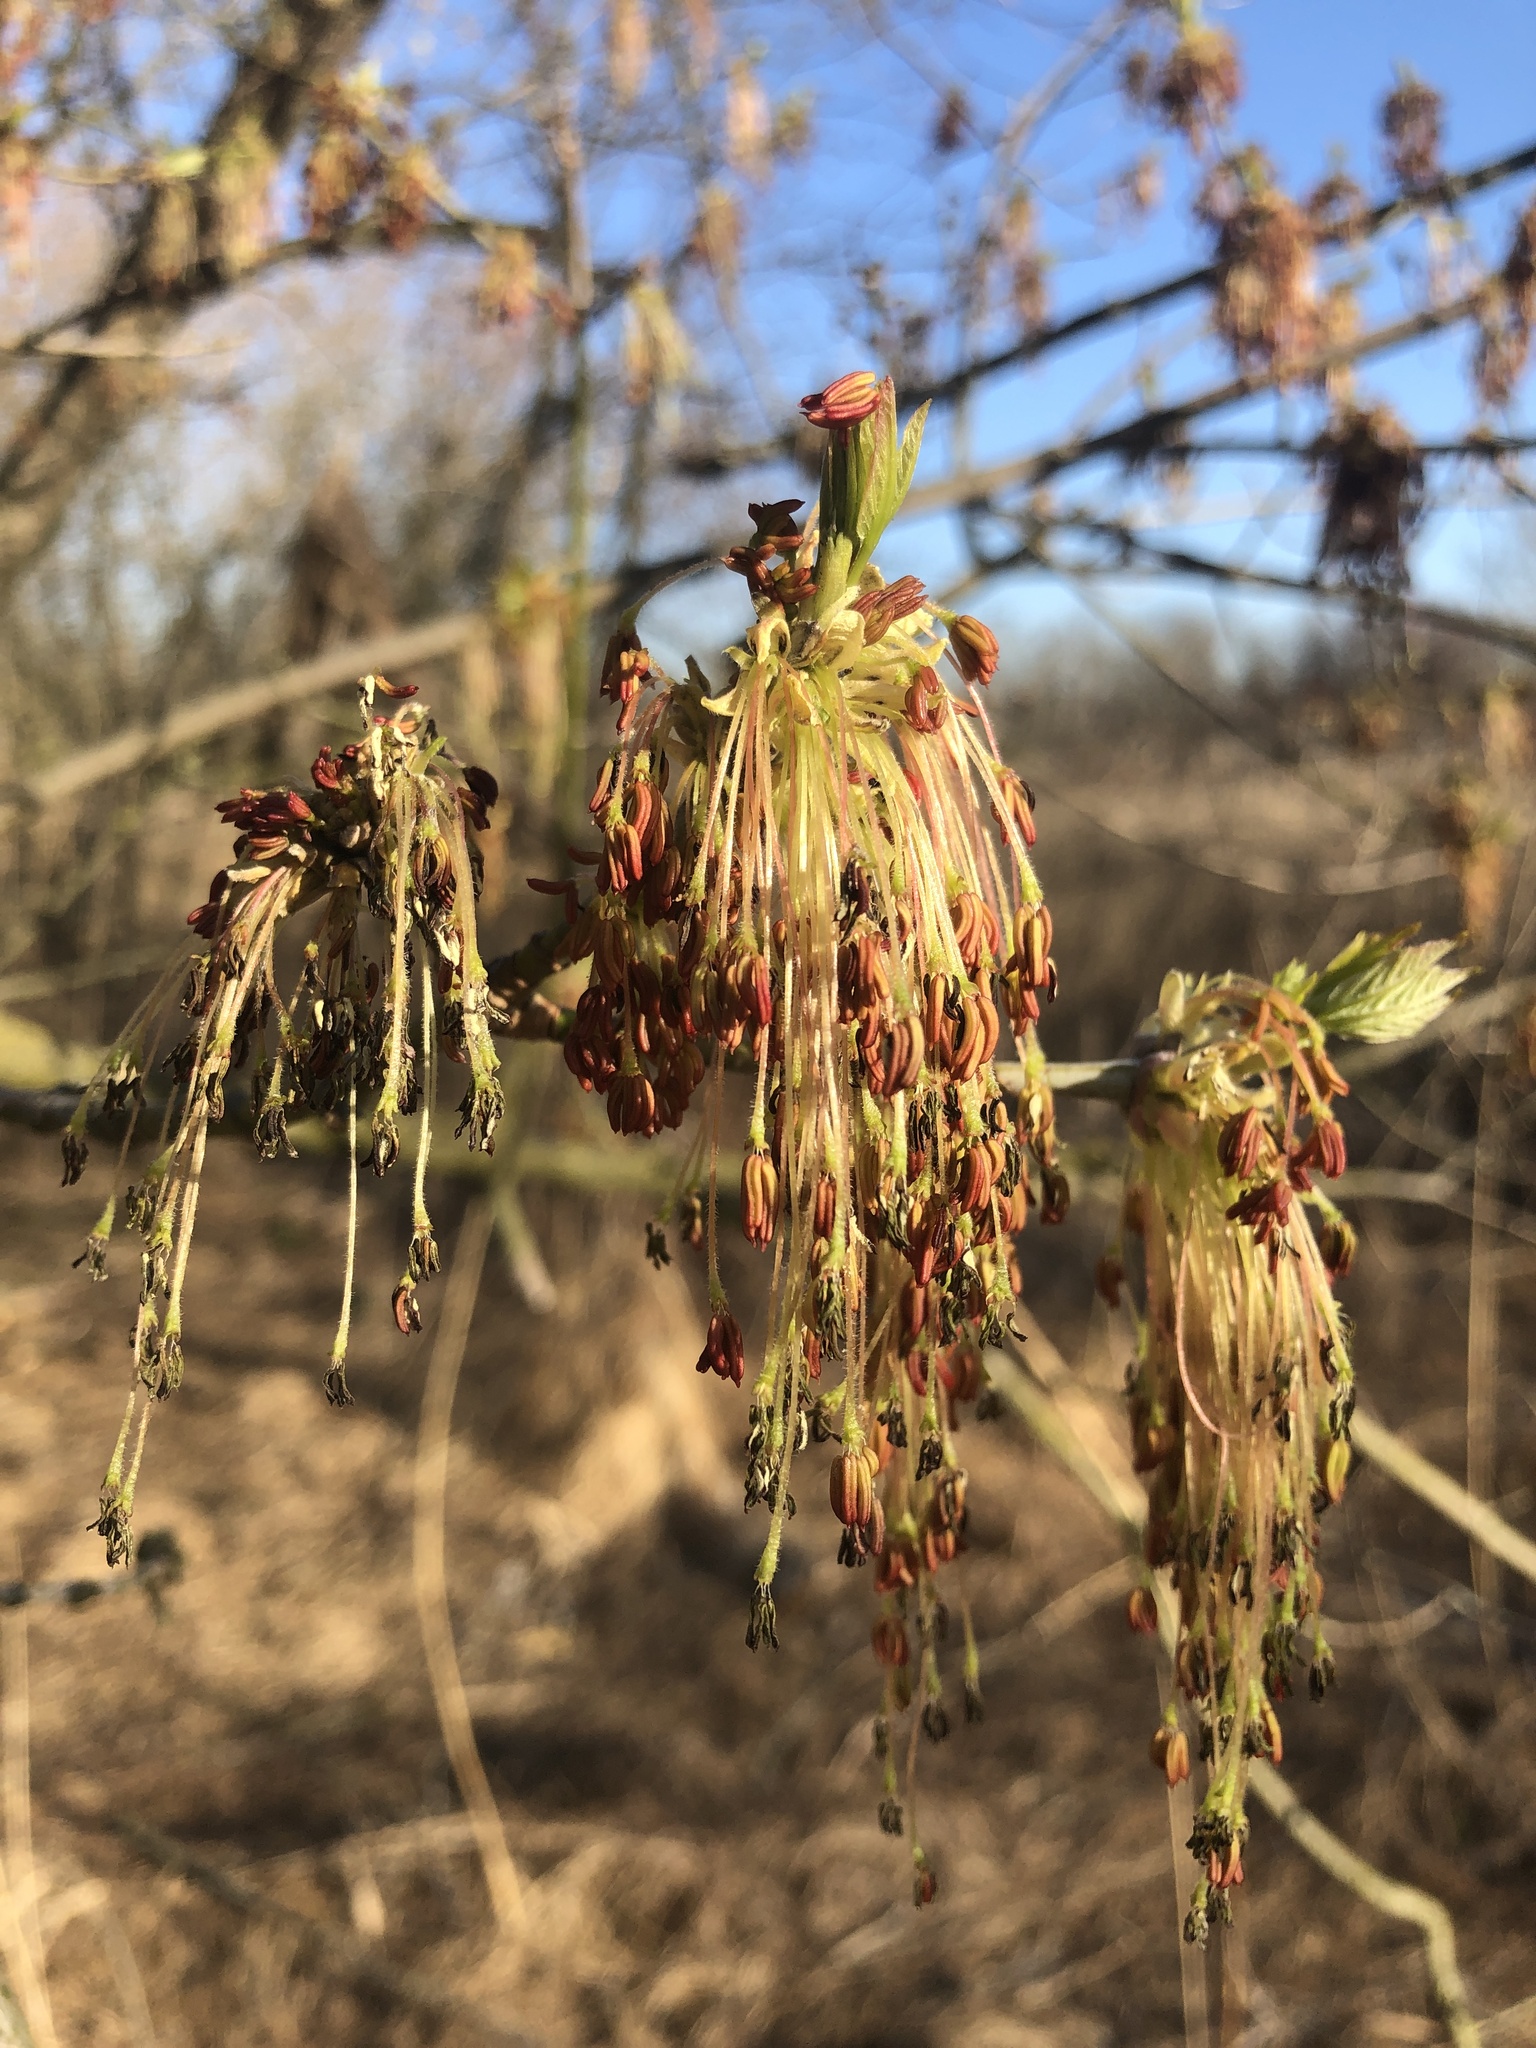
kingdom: Plantae
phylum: Tracheophyta
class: Magnoliopsida
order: Sapindales
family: Sapindaceae
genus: Acer
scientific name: Acer negundo
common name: Ashleaf maple
